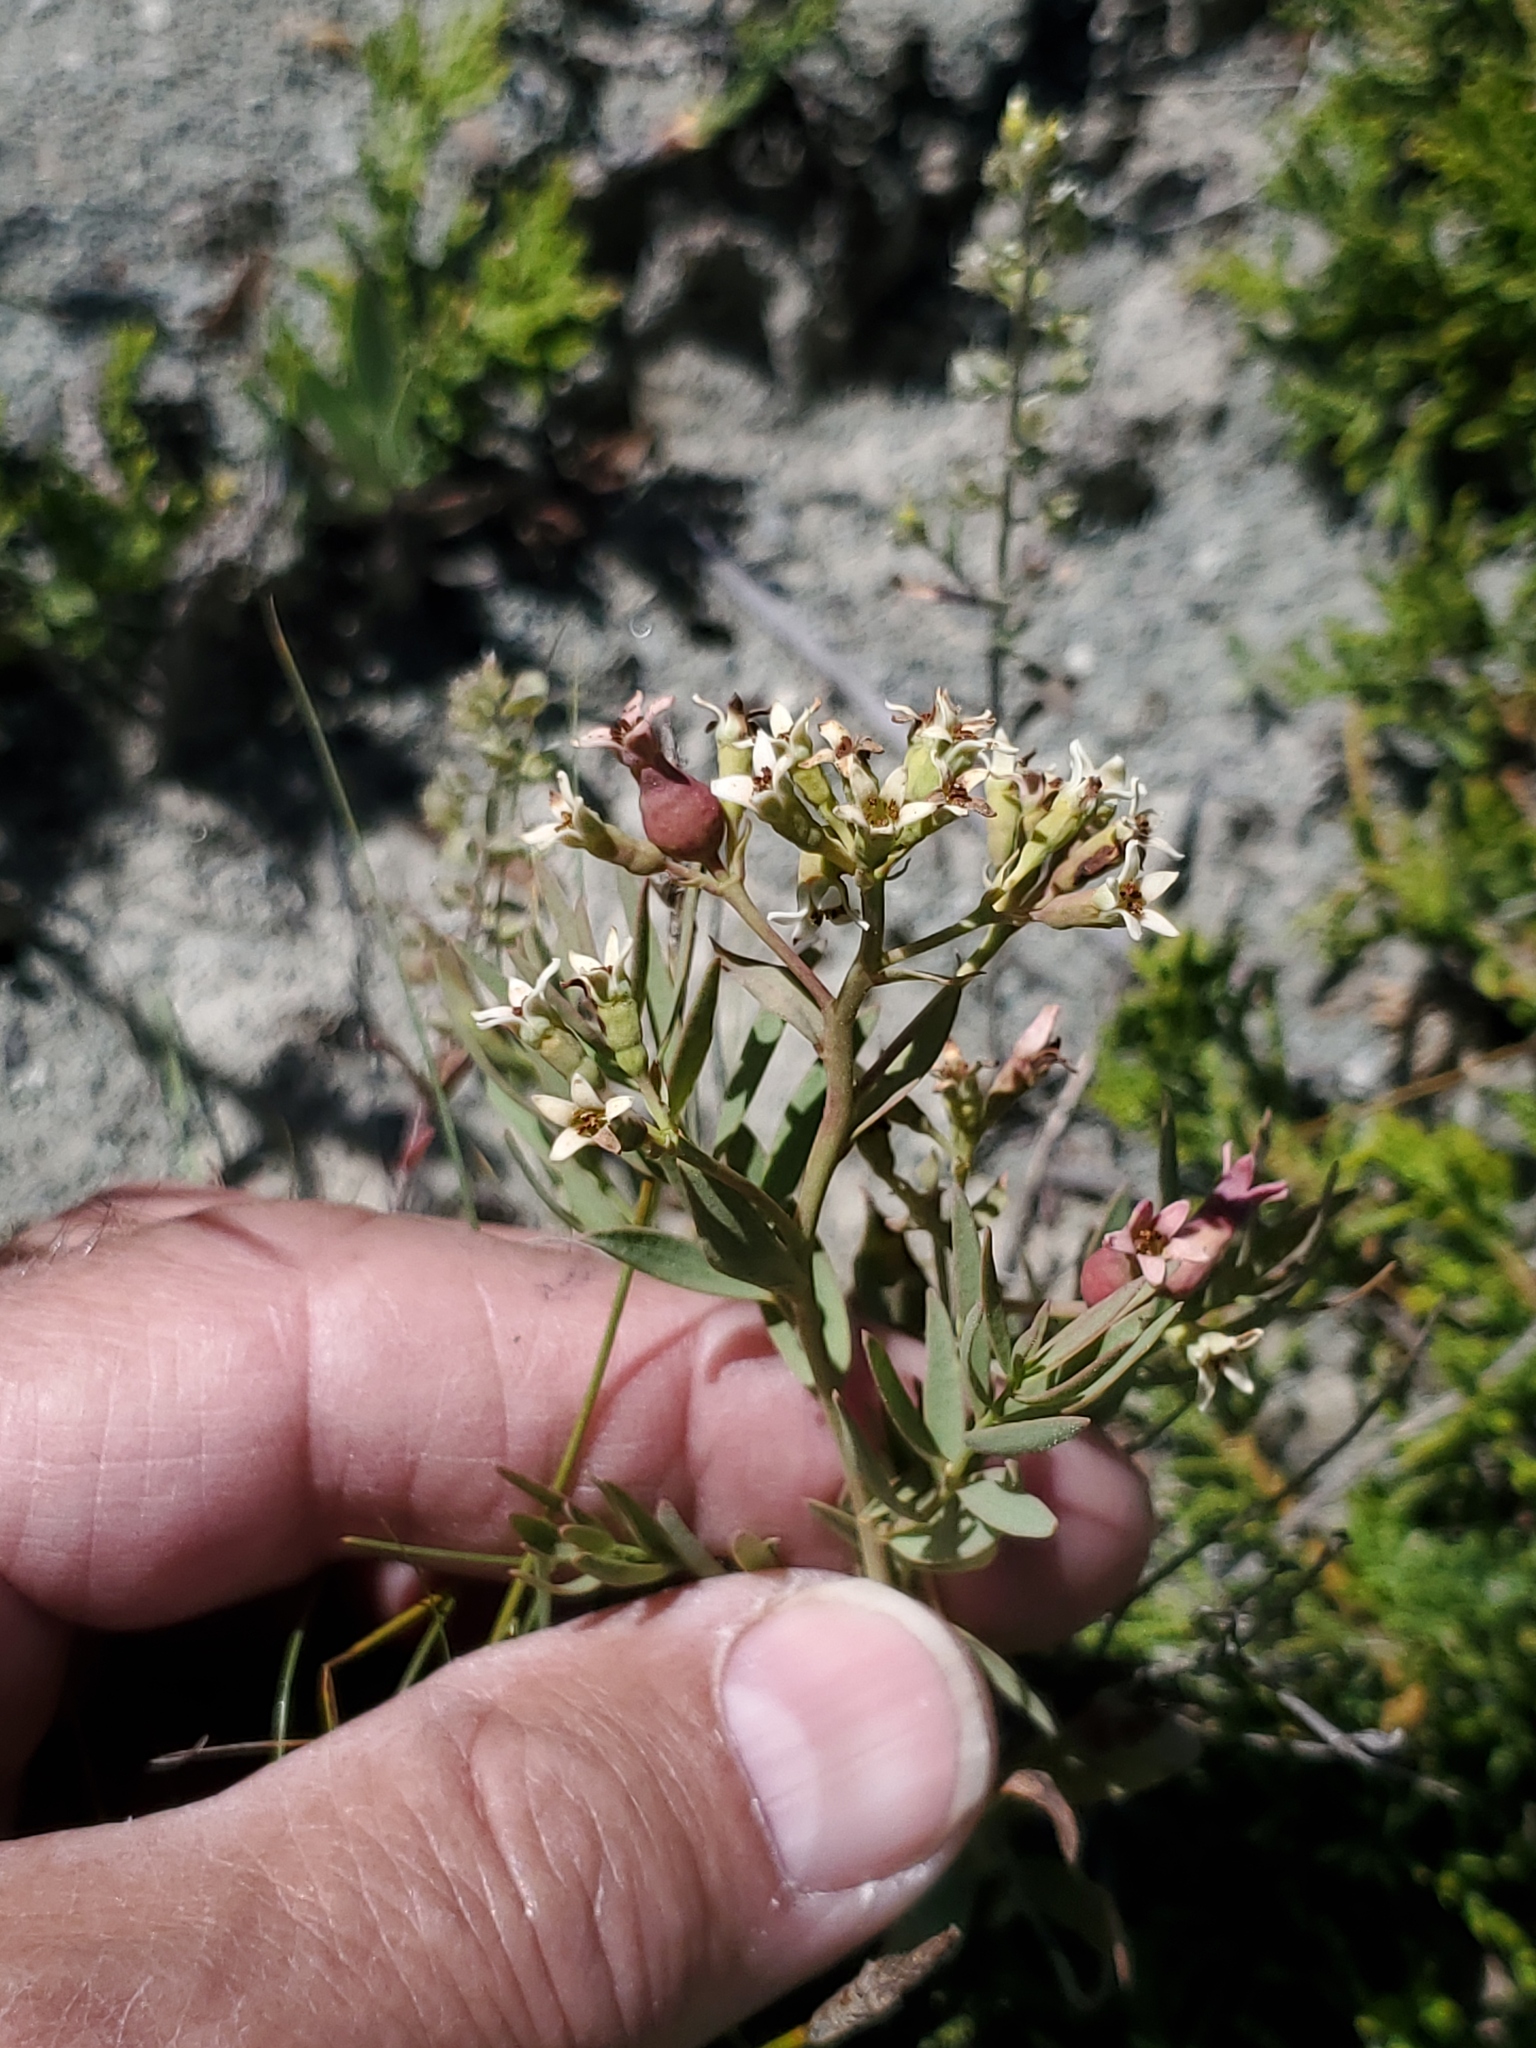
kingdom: Plantae
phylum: Tracheophyta
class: Magnoliopsida
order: Santalales
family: Comandraceae
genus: Comandra
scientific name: Comandra umbellata
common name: Bastard toadflax
